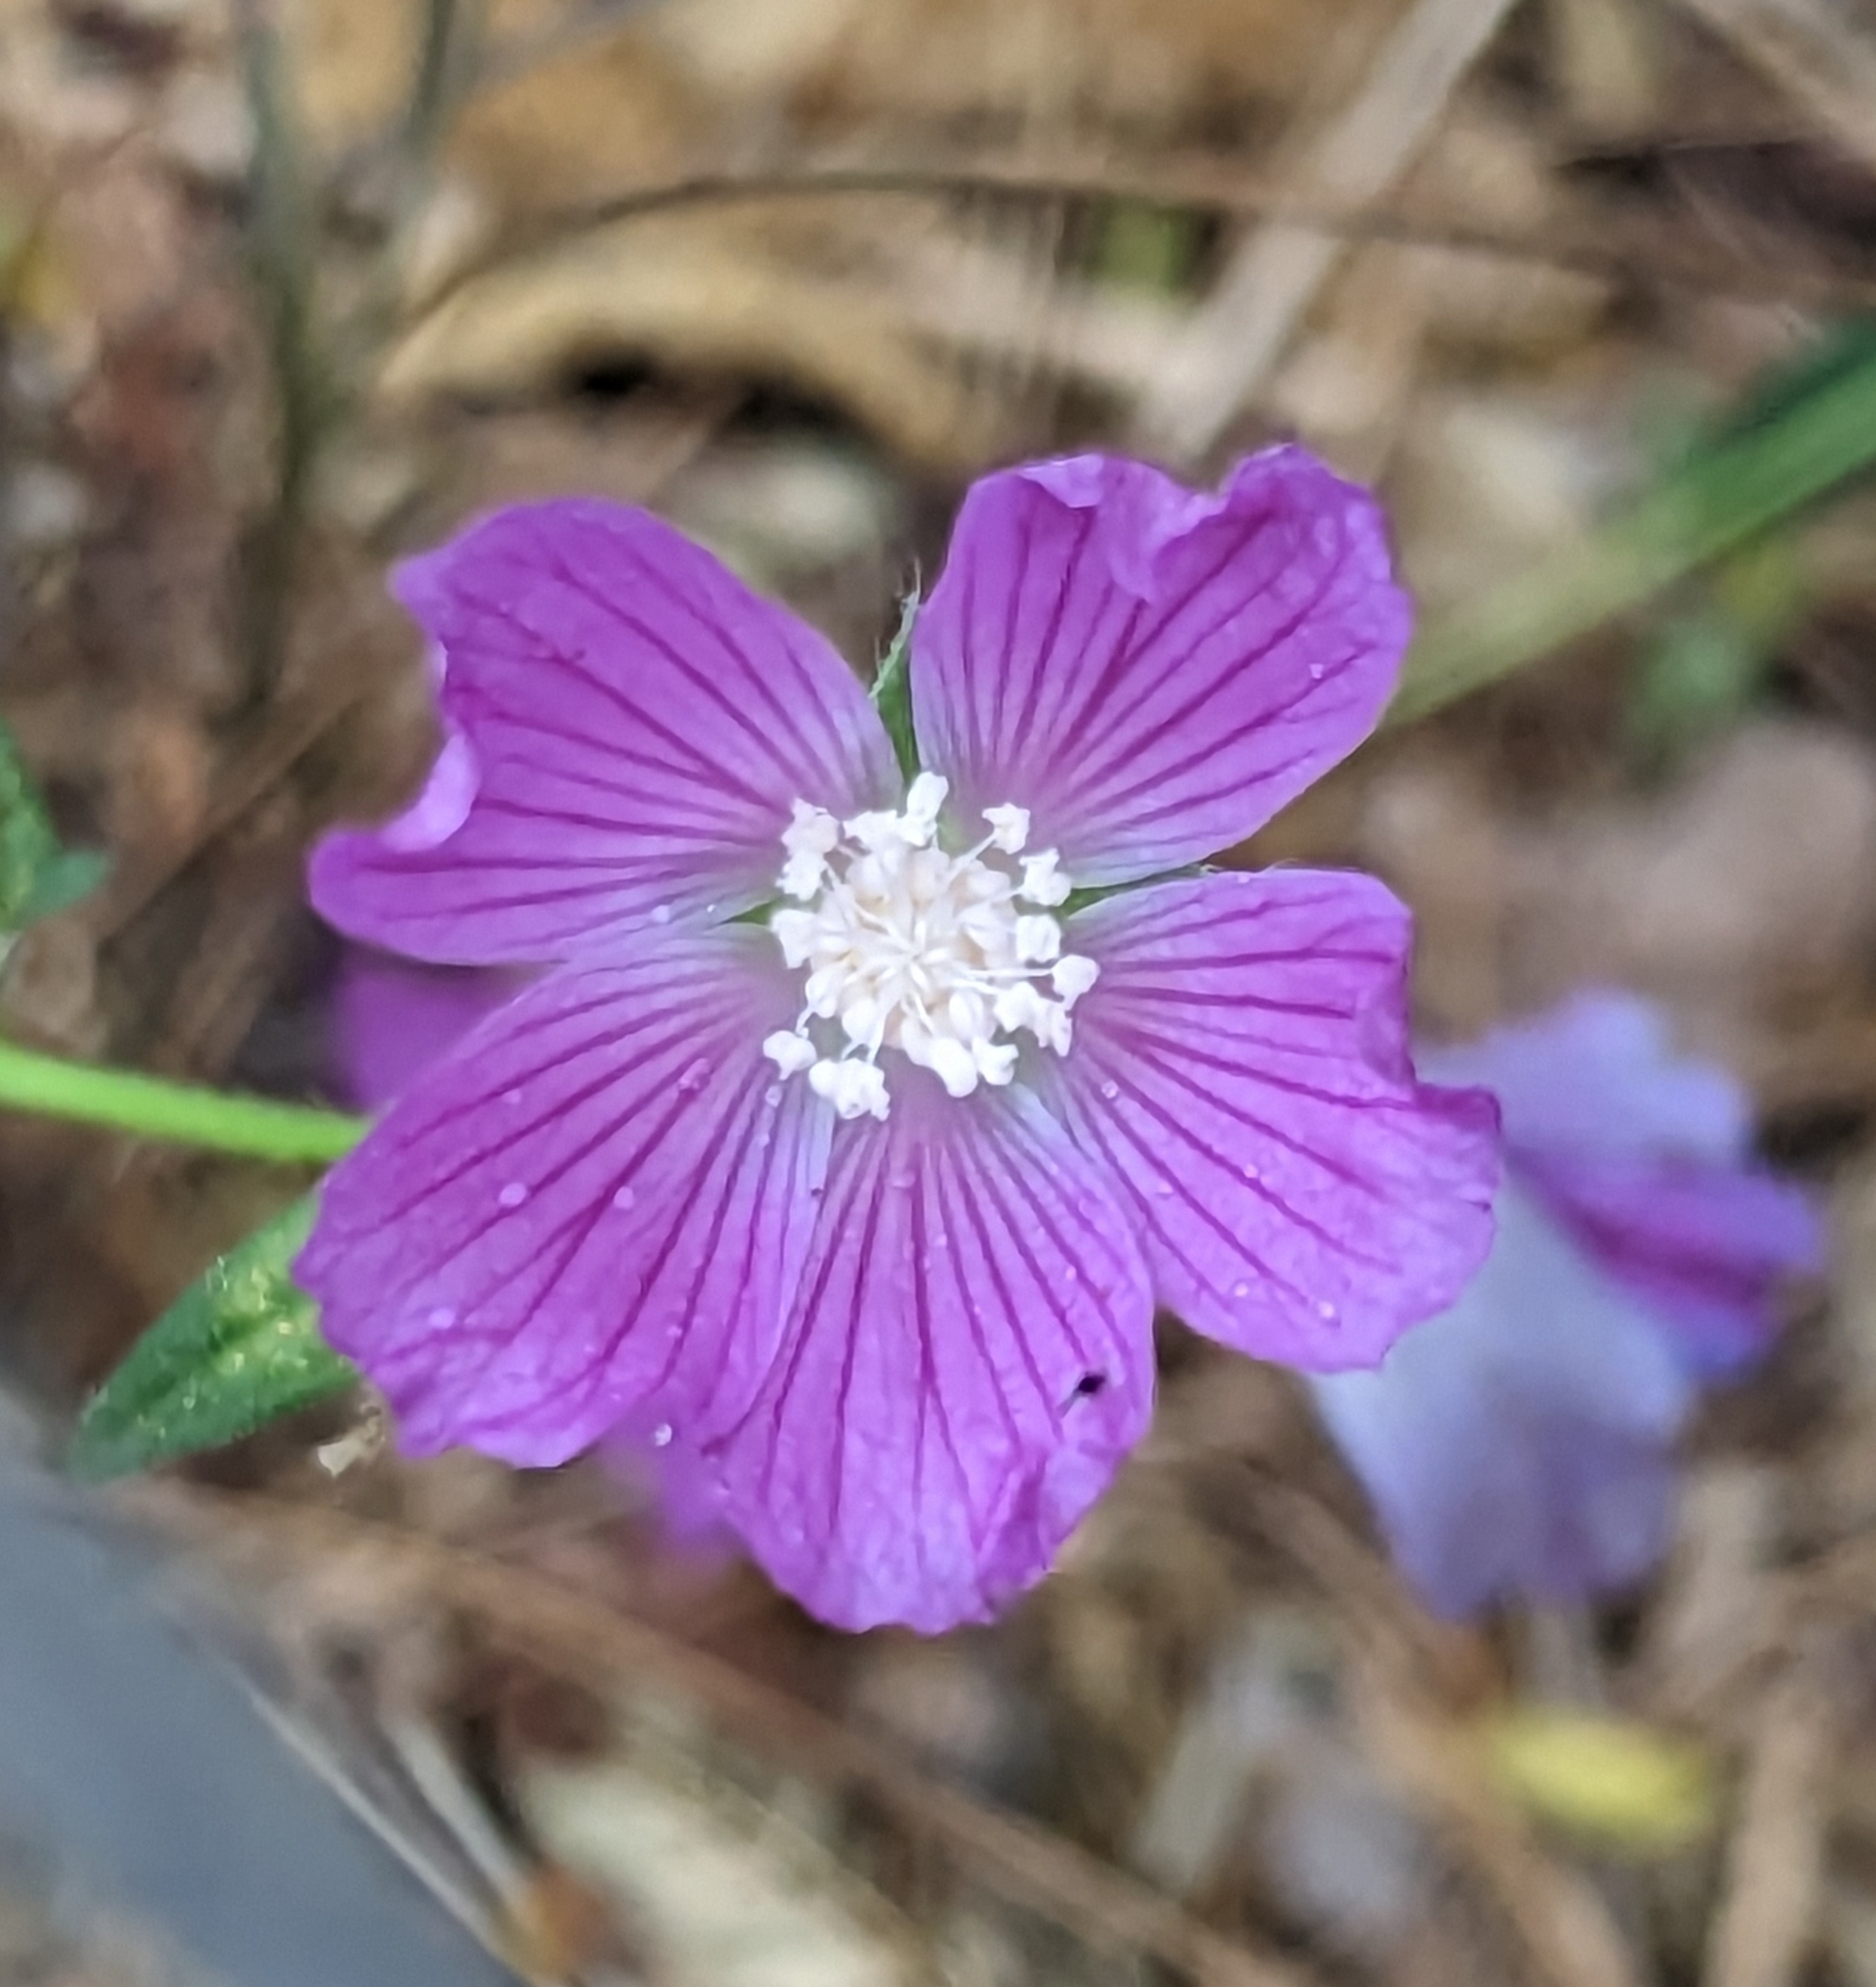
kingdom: Plantae
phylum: Tracheophyta
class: Magnoliopsida
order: Malvales
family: Malvaceae
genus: Anoda
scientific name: Anoda cristata
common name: Spurred anoda
